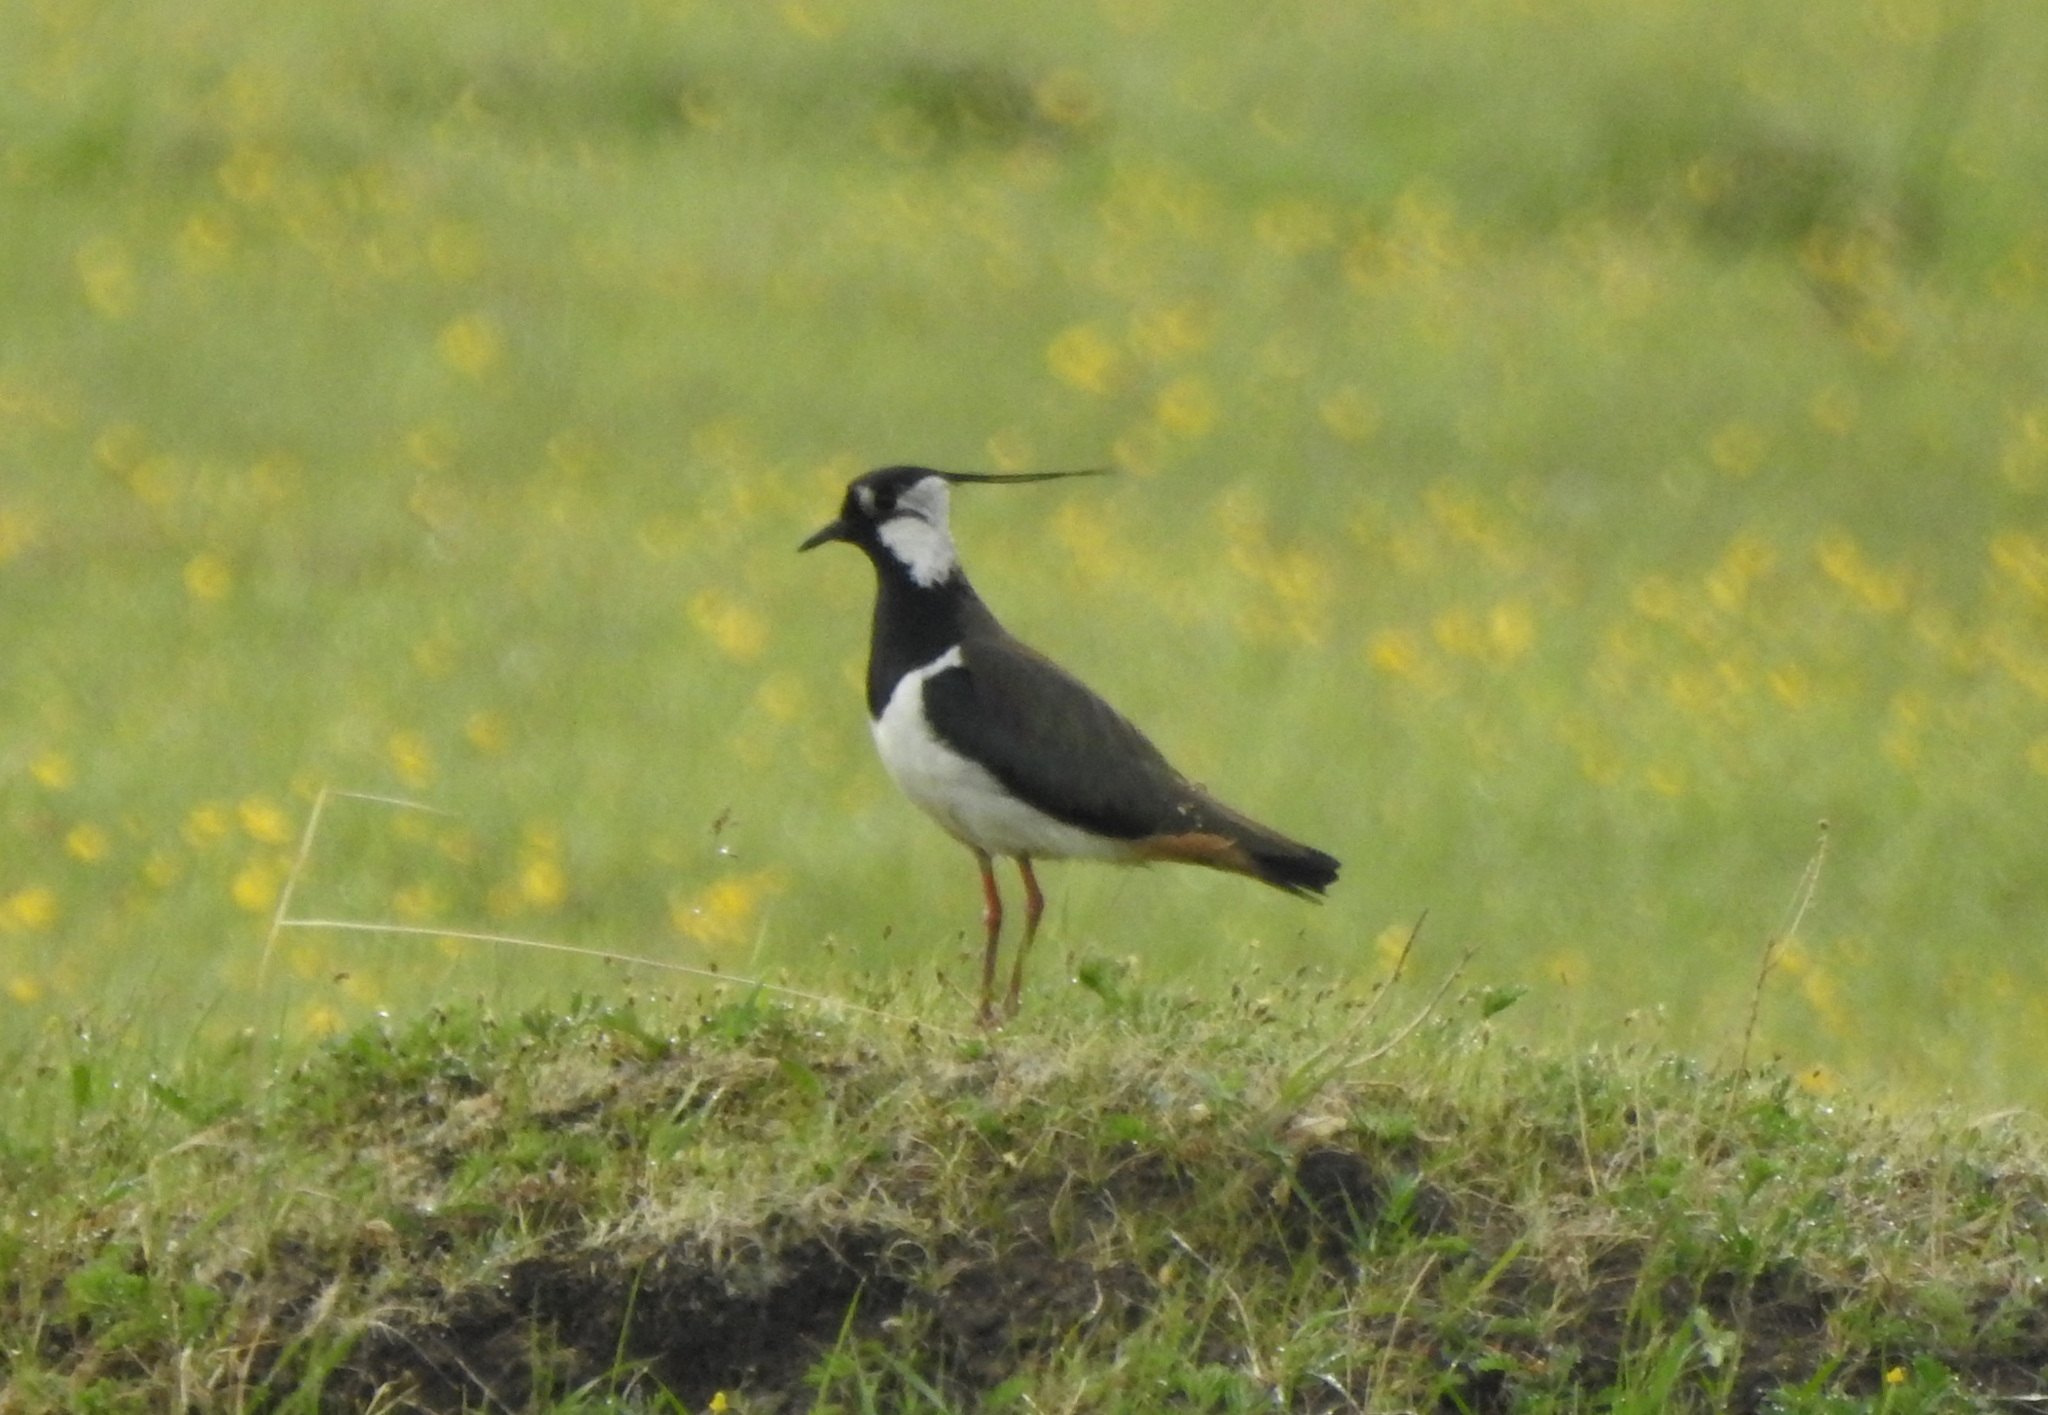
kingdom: Animalia
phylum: Chordata
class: Aves
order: Charadriiformes
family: Charadriidae
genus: Vanellus
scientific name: Vanellus vanellus
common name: Northern lapwing
